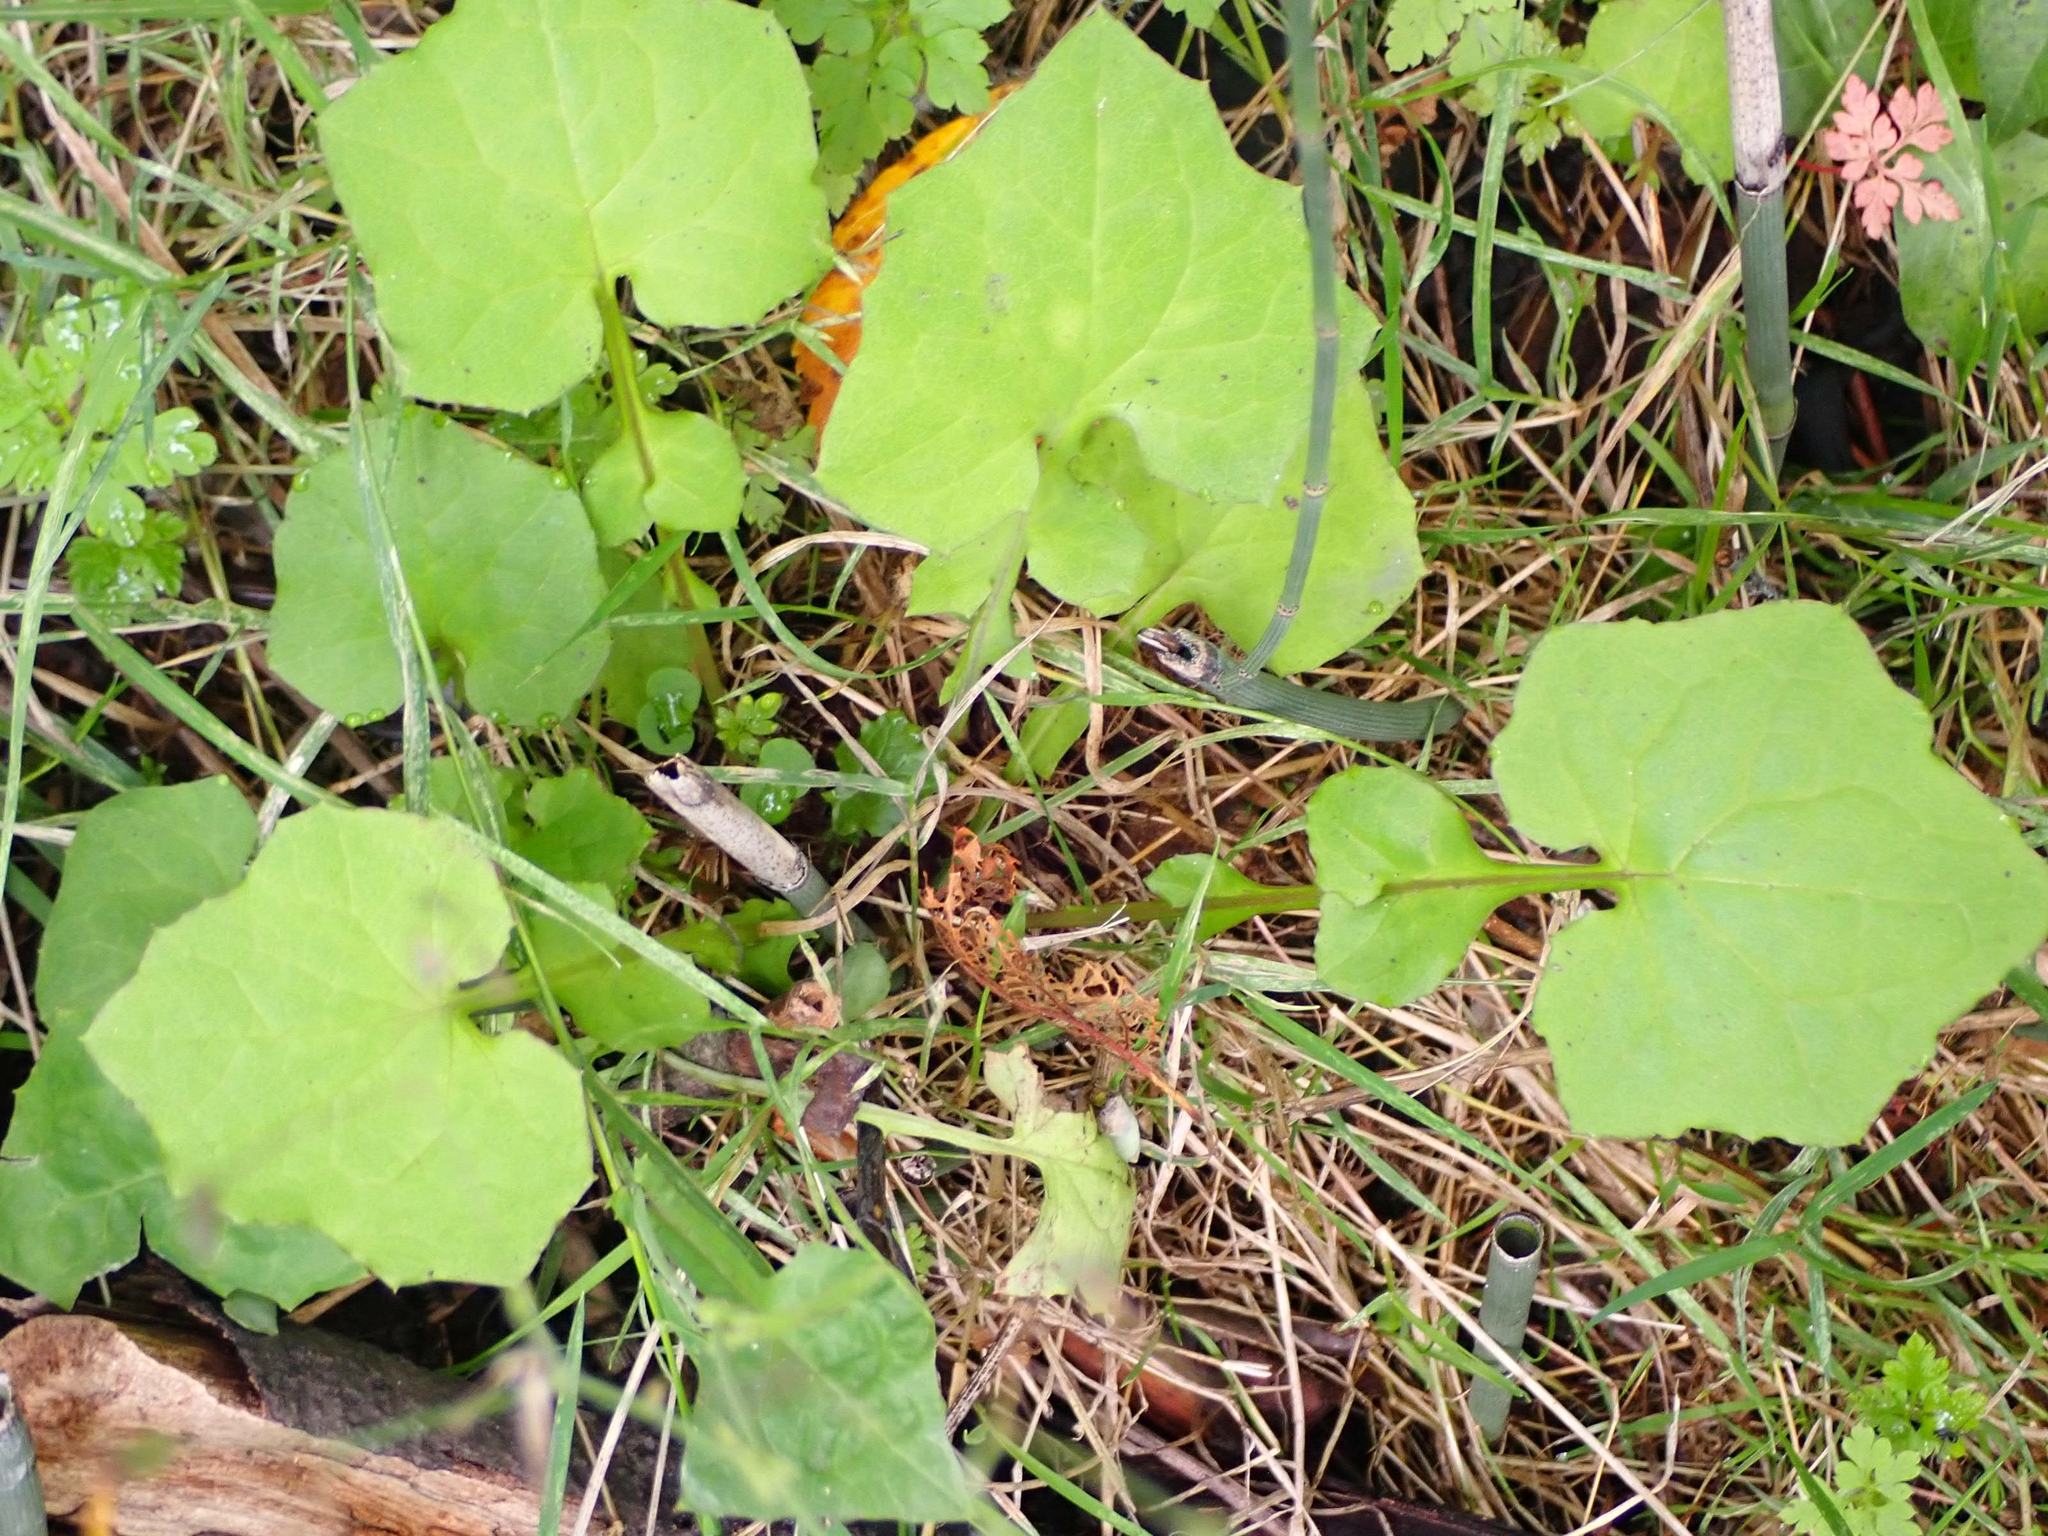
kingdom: Plantae
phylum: Tracheophyta
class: Magnoliopsida
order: Asterales
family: Asteraceae
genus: Mycelis
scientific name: Mycelis muralis
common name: Wall lettuce
